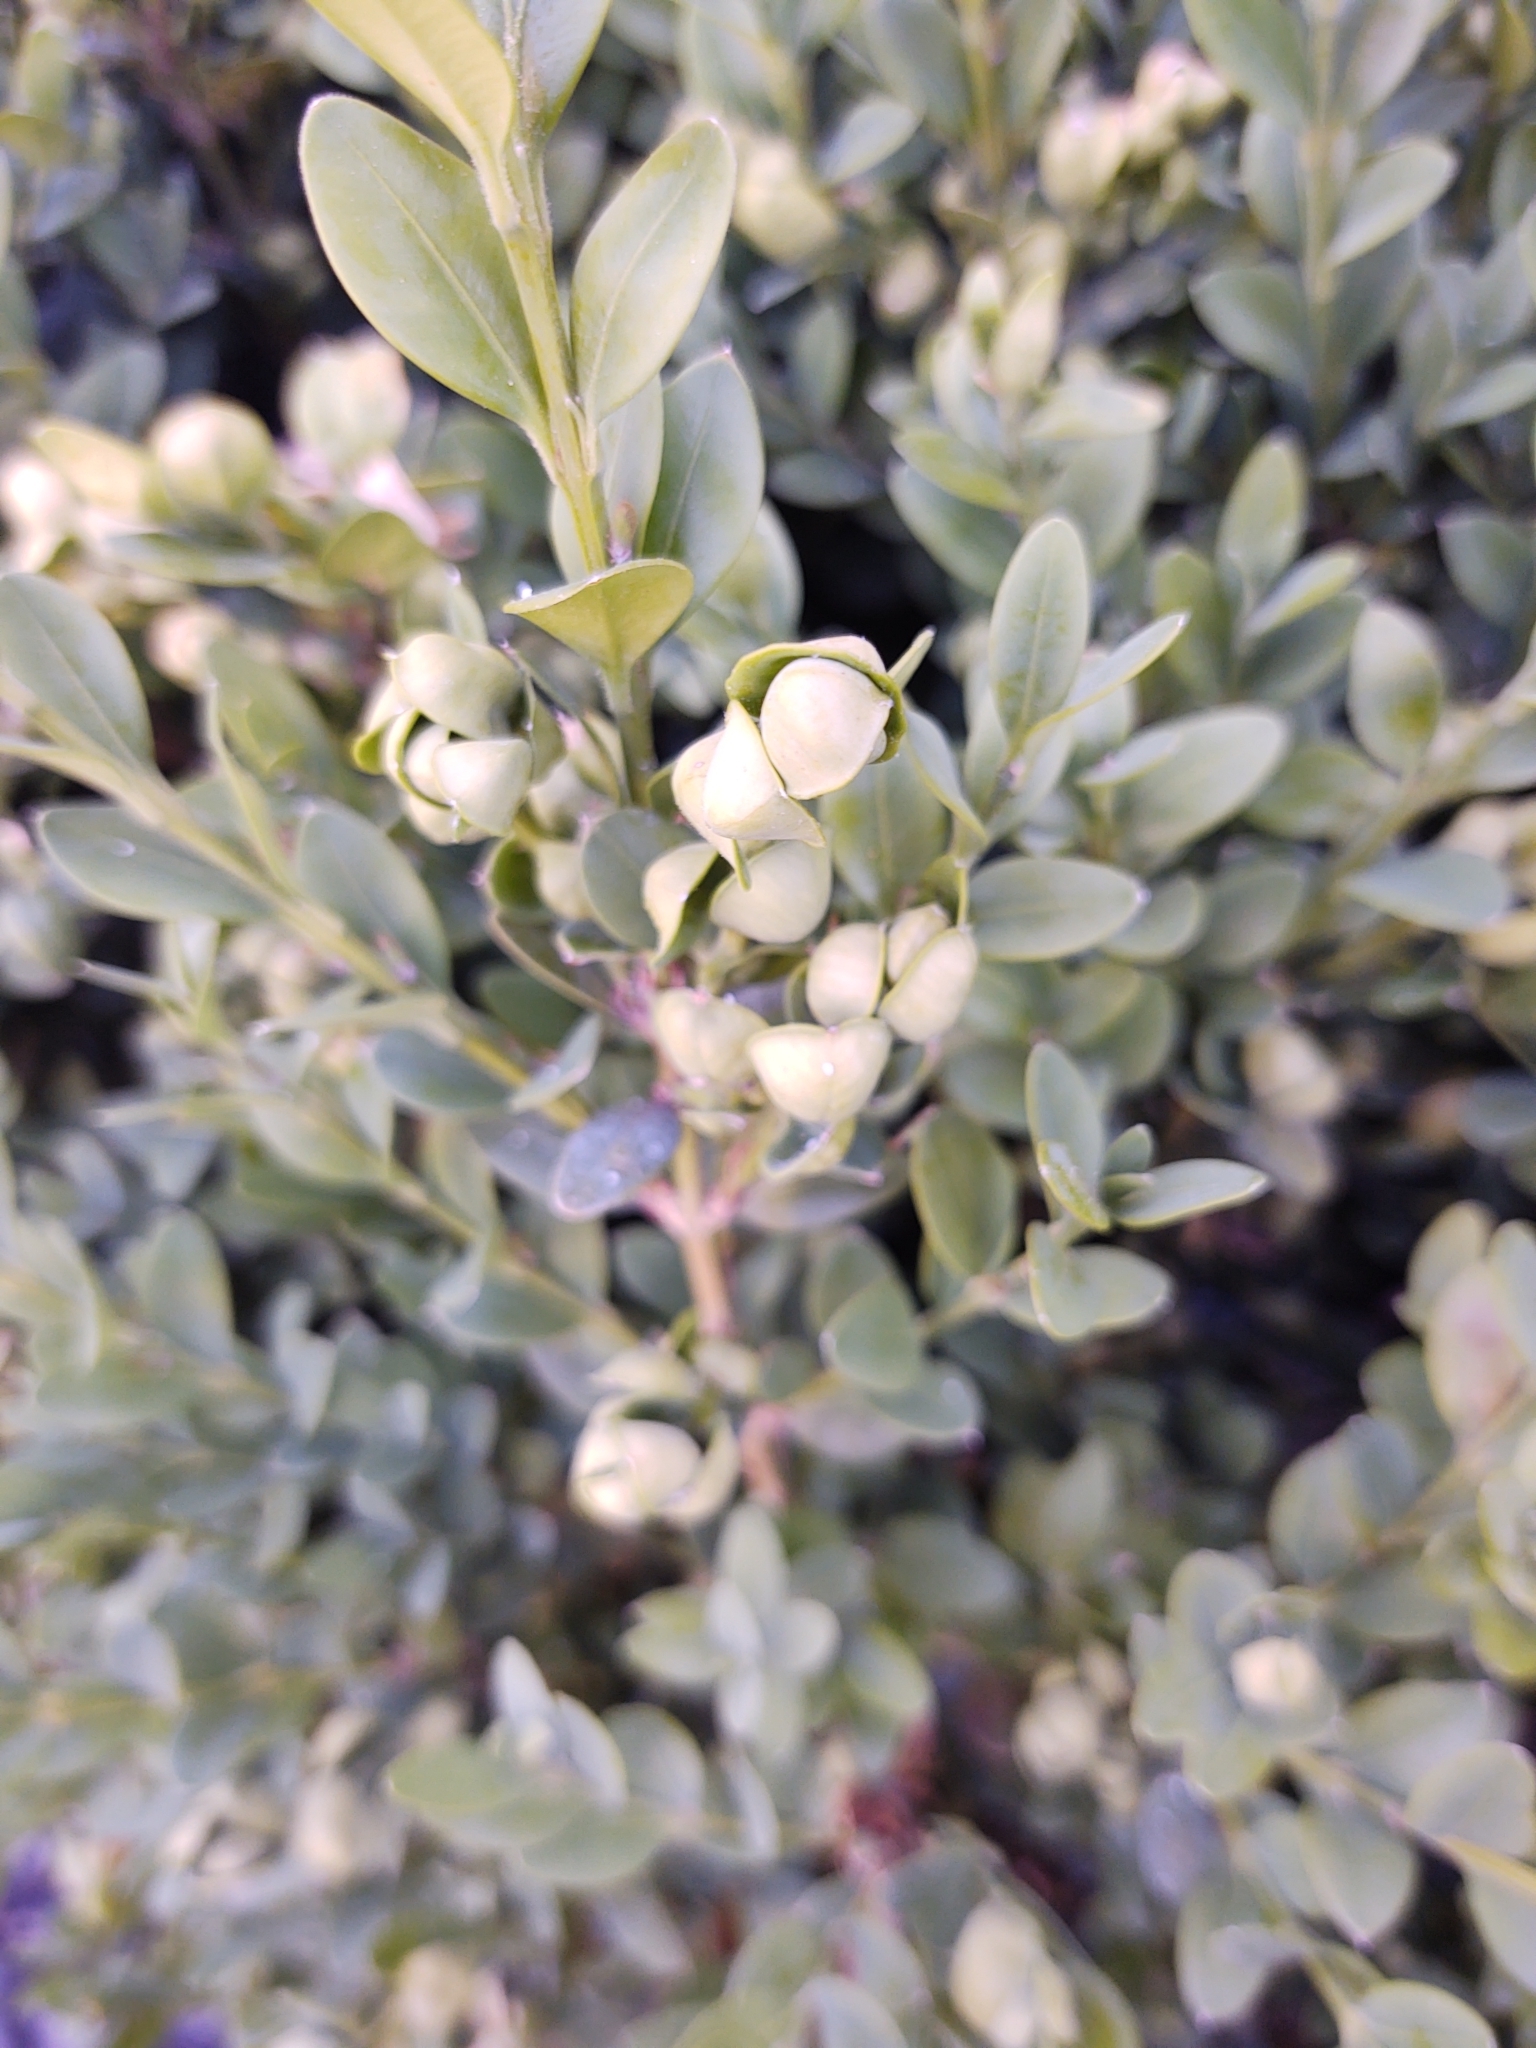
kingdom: Animalia
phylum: Arthropoda
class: Insecta
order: Hemiptera
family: Psyllidae
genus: Psylla
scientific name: Psylla buxi
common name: Boxwood psyllid
